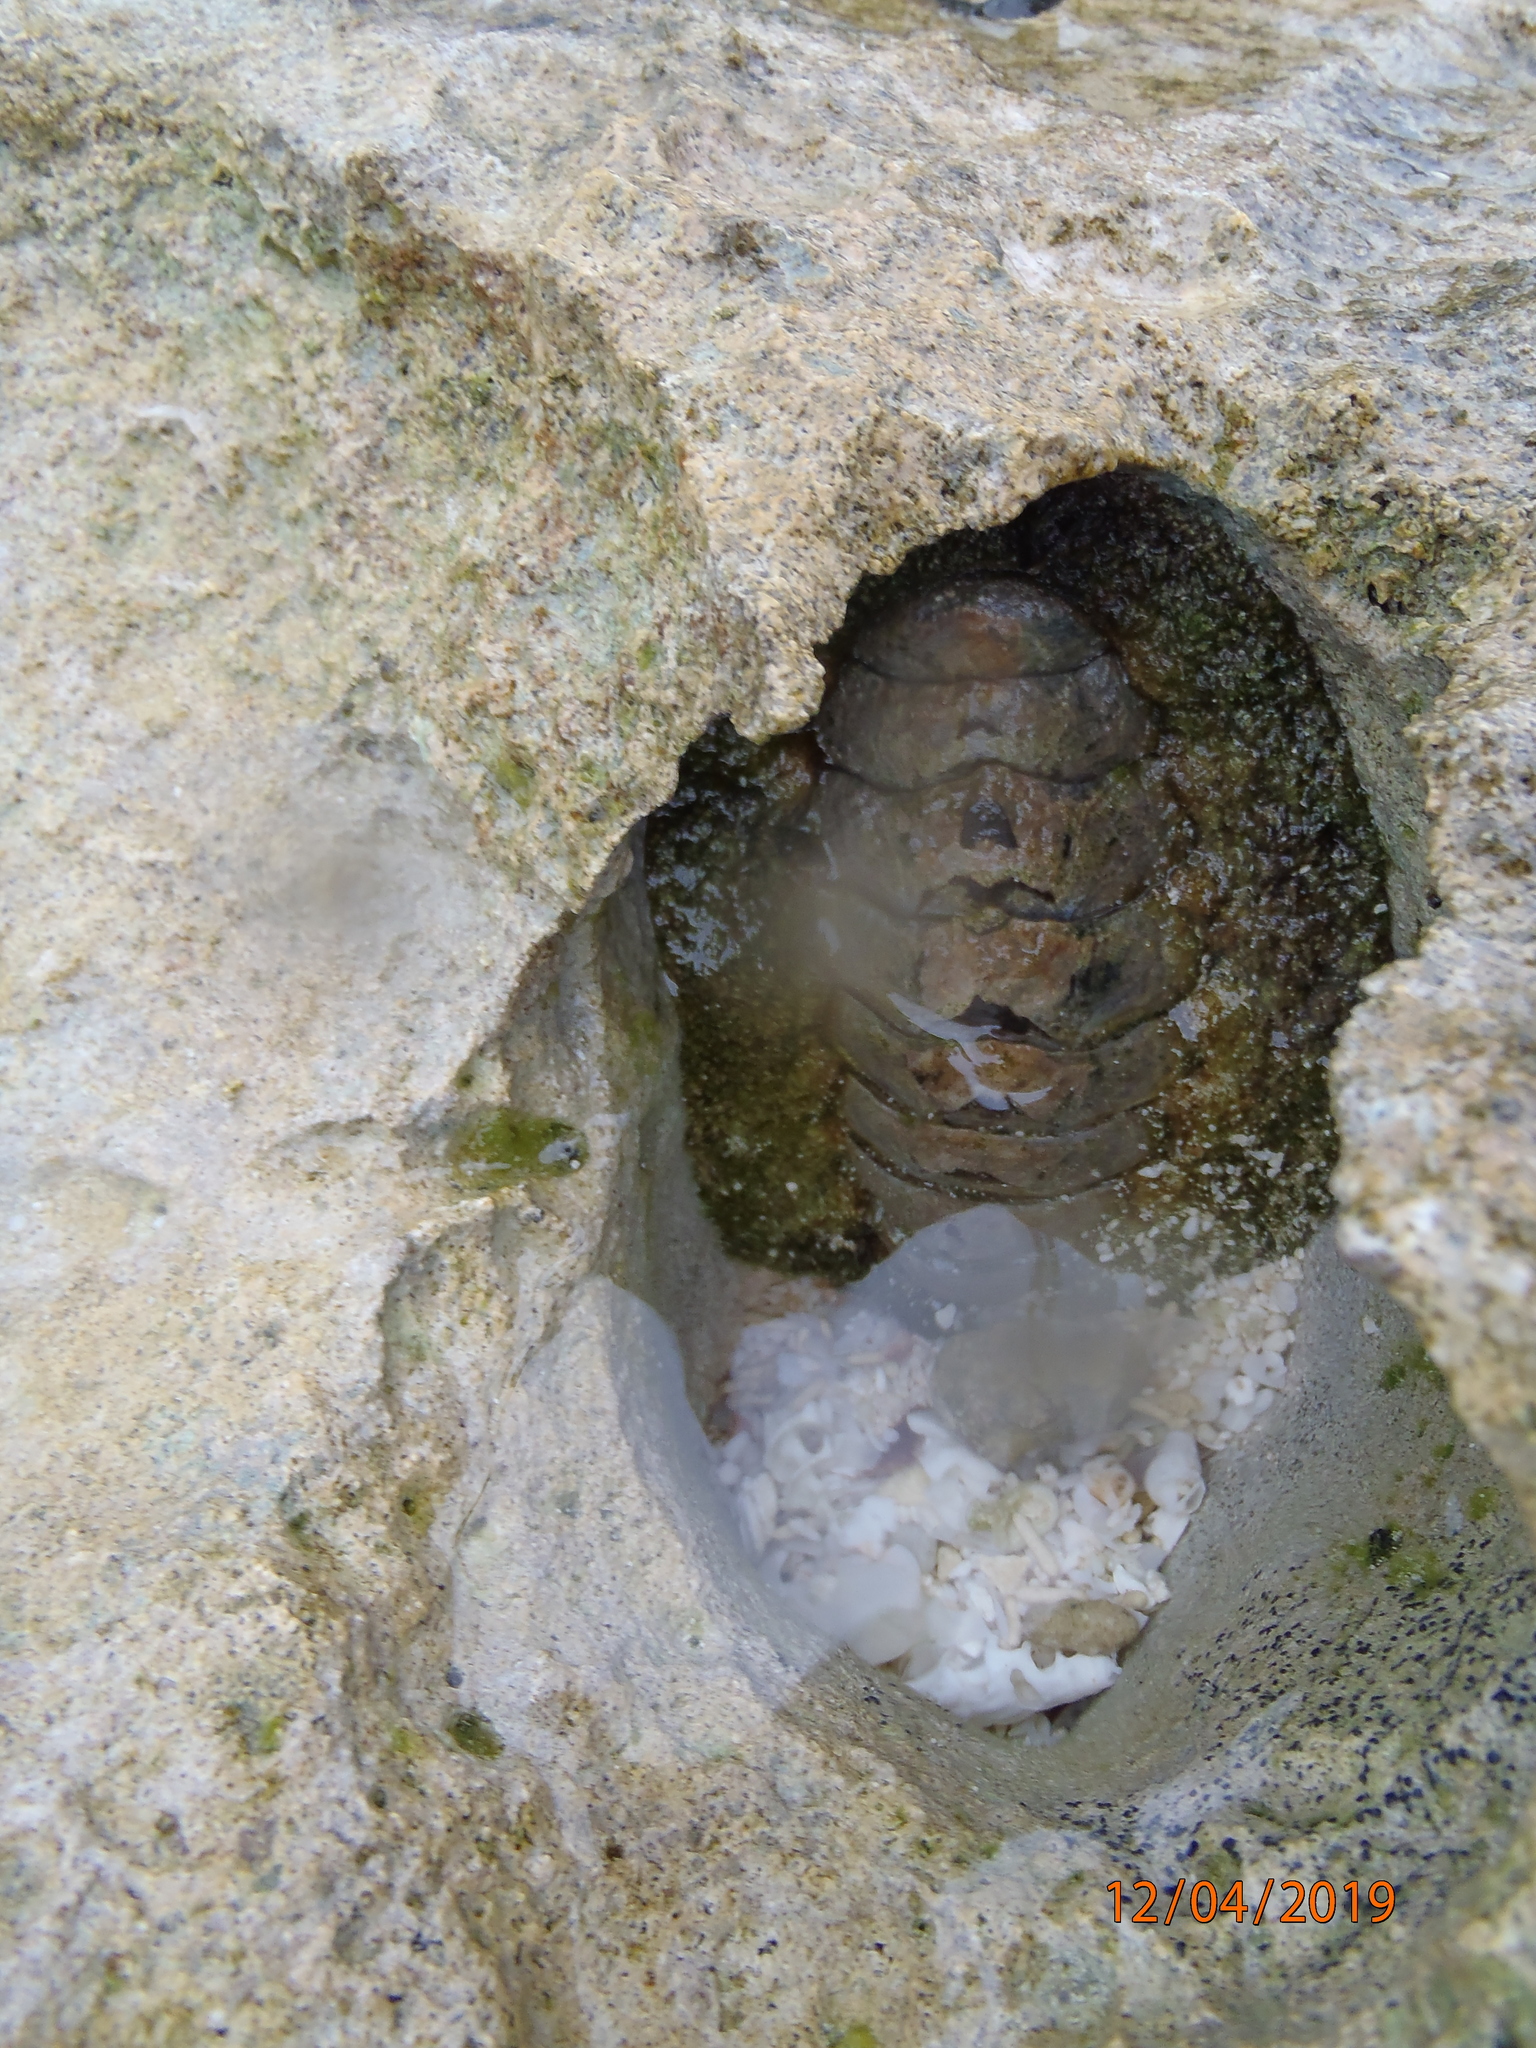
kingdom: Animalia
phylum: Mollusca
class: Polyplacophora
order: Chitonida
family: Chitonidae
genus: Acanthopleura
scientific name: Acanthopleura gemmata
